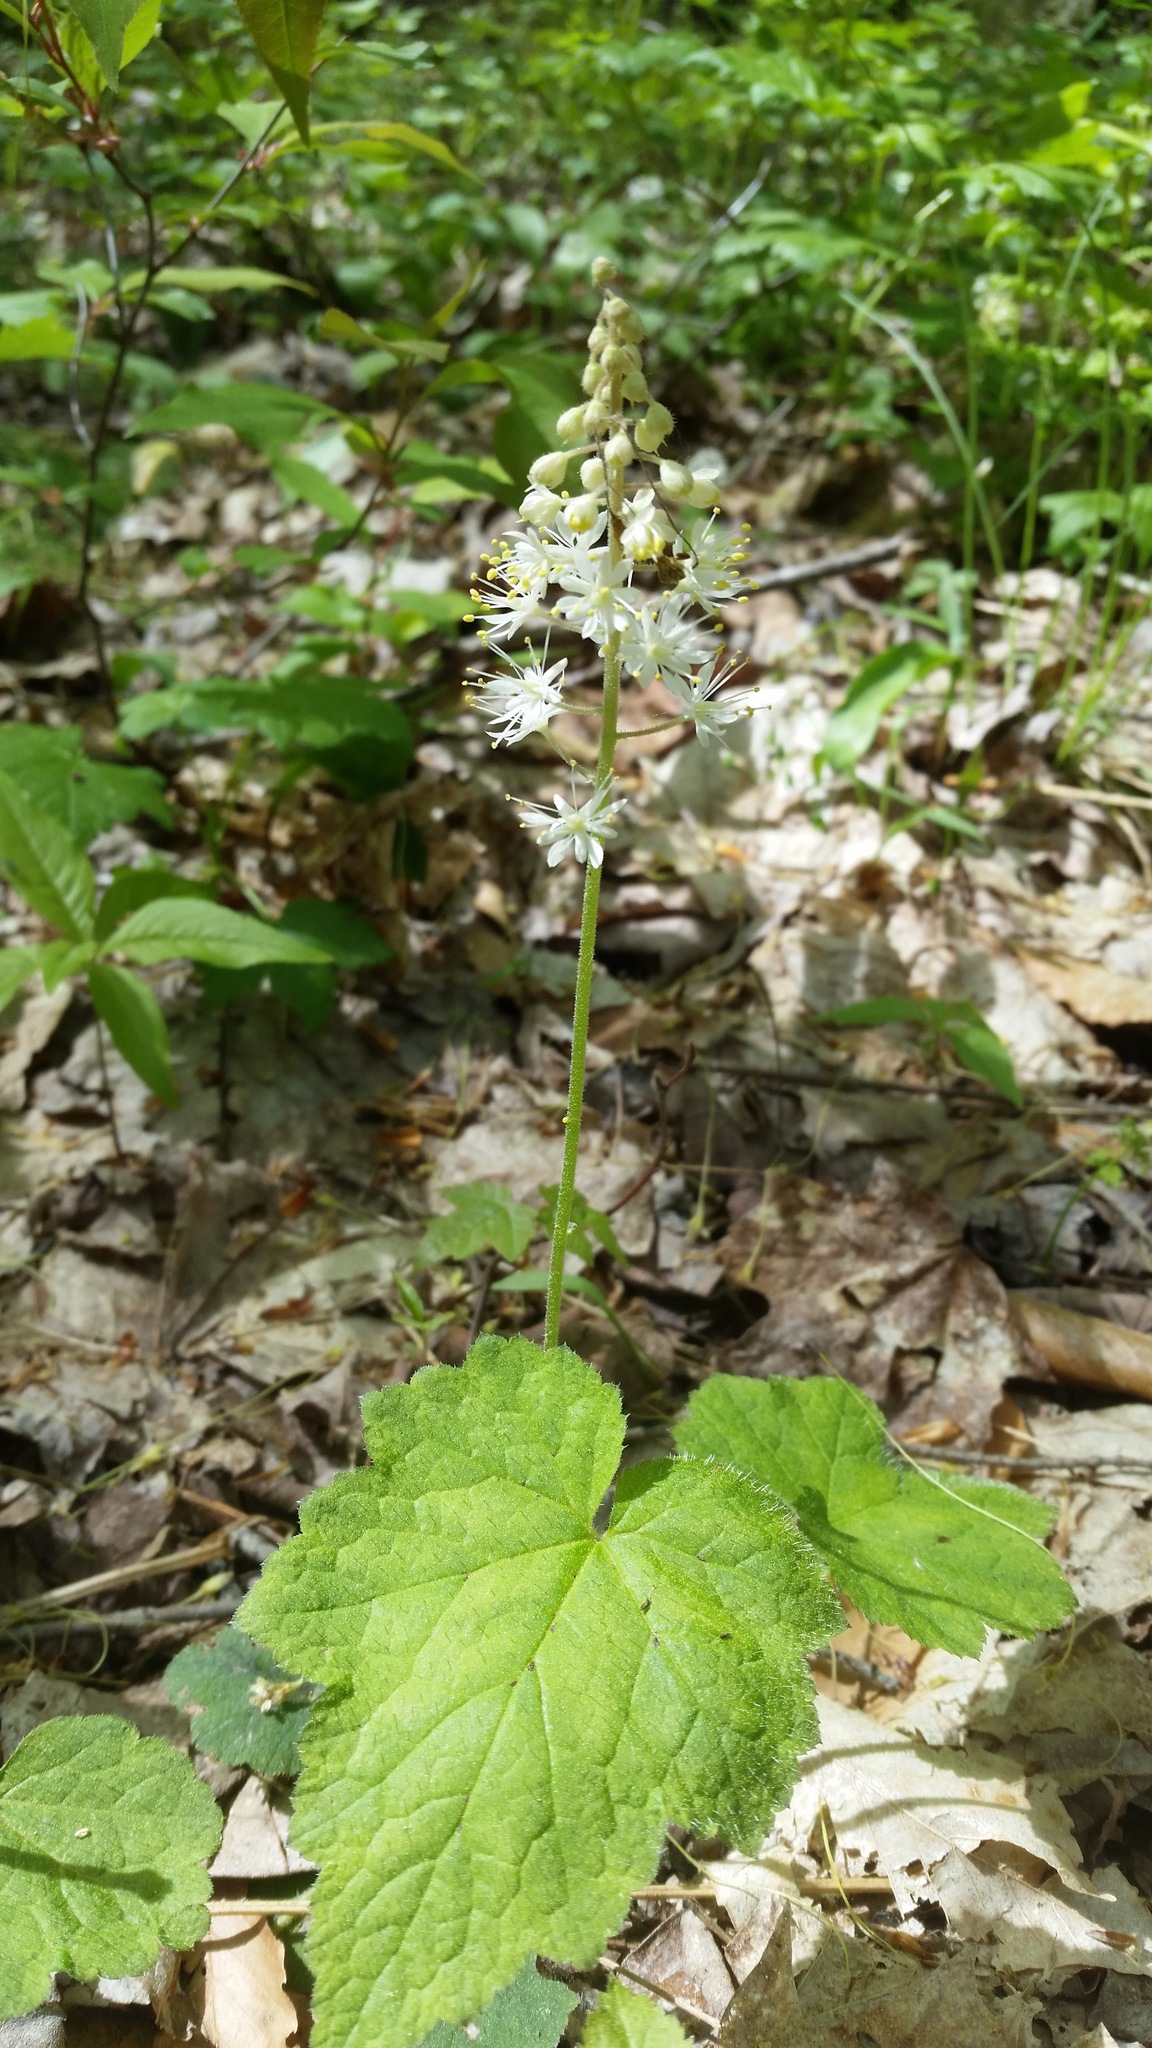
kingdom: Plantae
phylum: Tracheophyta
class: Magnoliopsida
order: Saxifragales
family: Saxifragaceae
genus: Tiarella
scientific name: Tiarella stolonifera
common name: Stoloniferous foamflower
